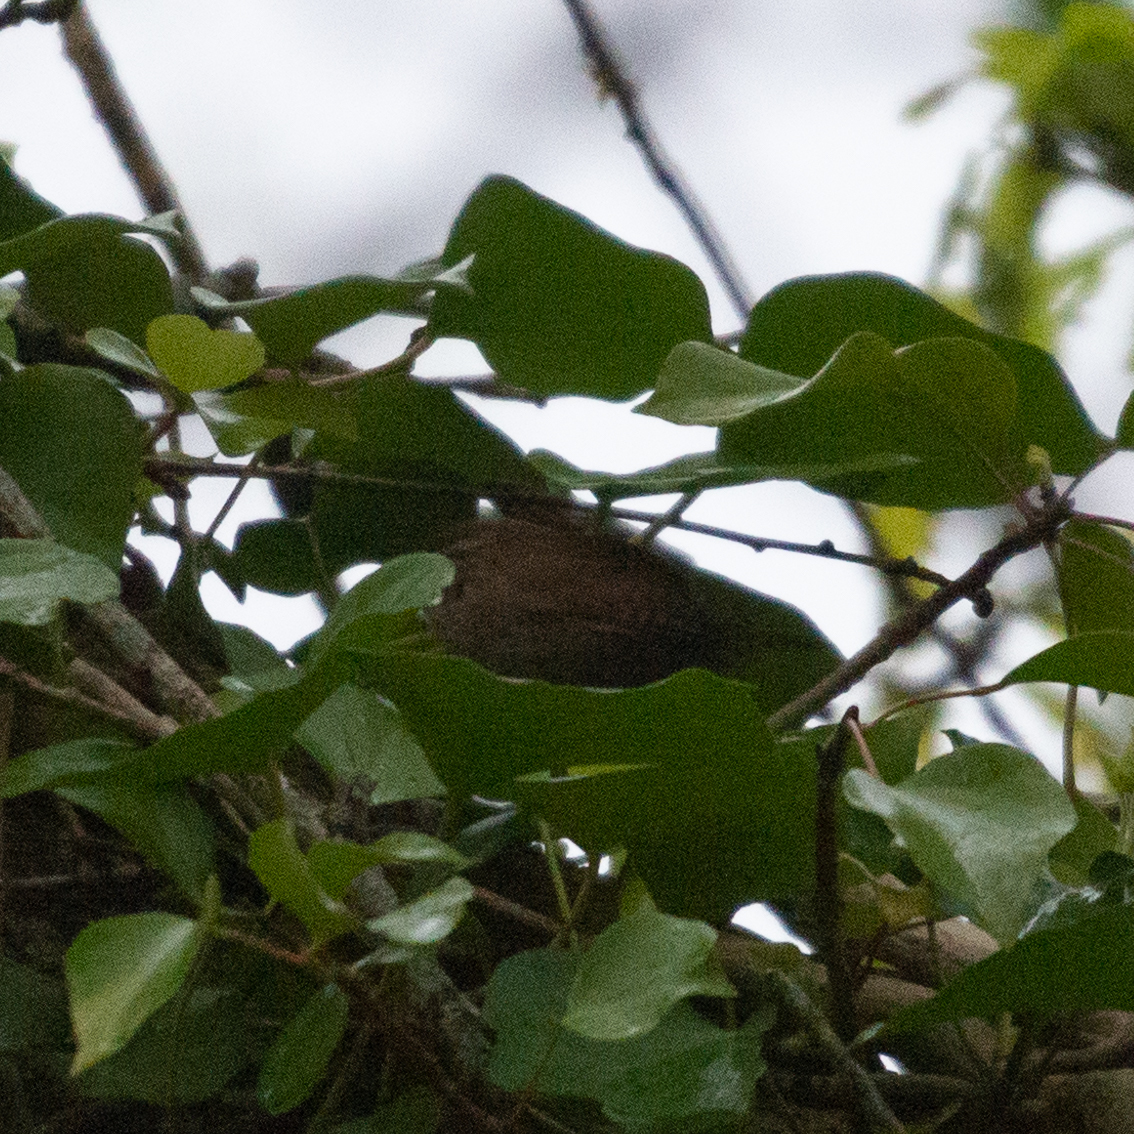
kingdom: Animalia
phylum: Chordata
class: Aves
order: Passeriformes
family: Troglodytidae
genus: Troglodytes
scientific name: Troglodytes troglodytes
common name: Eurasian wren
